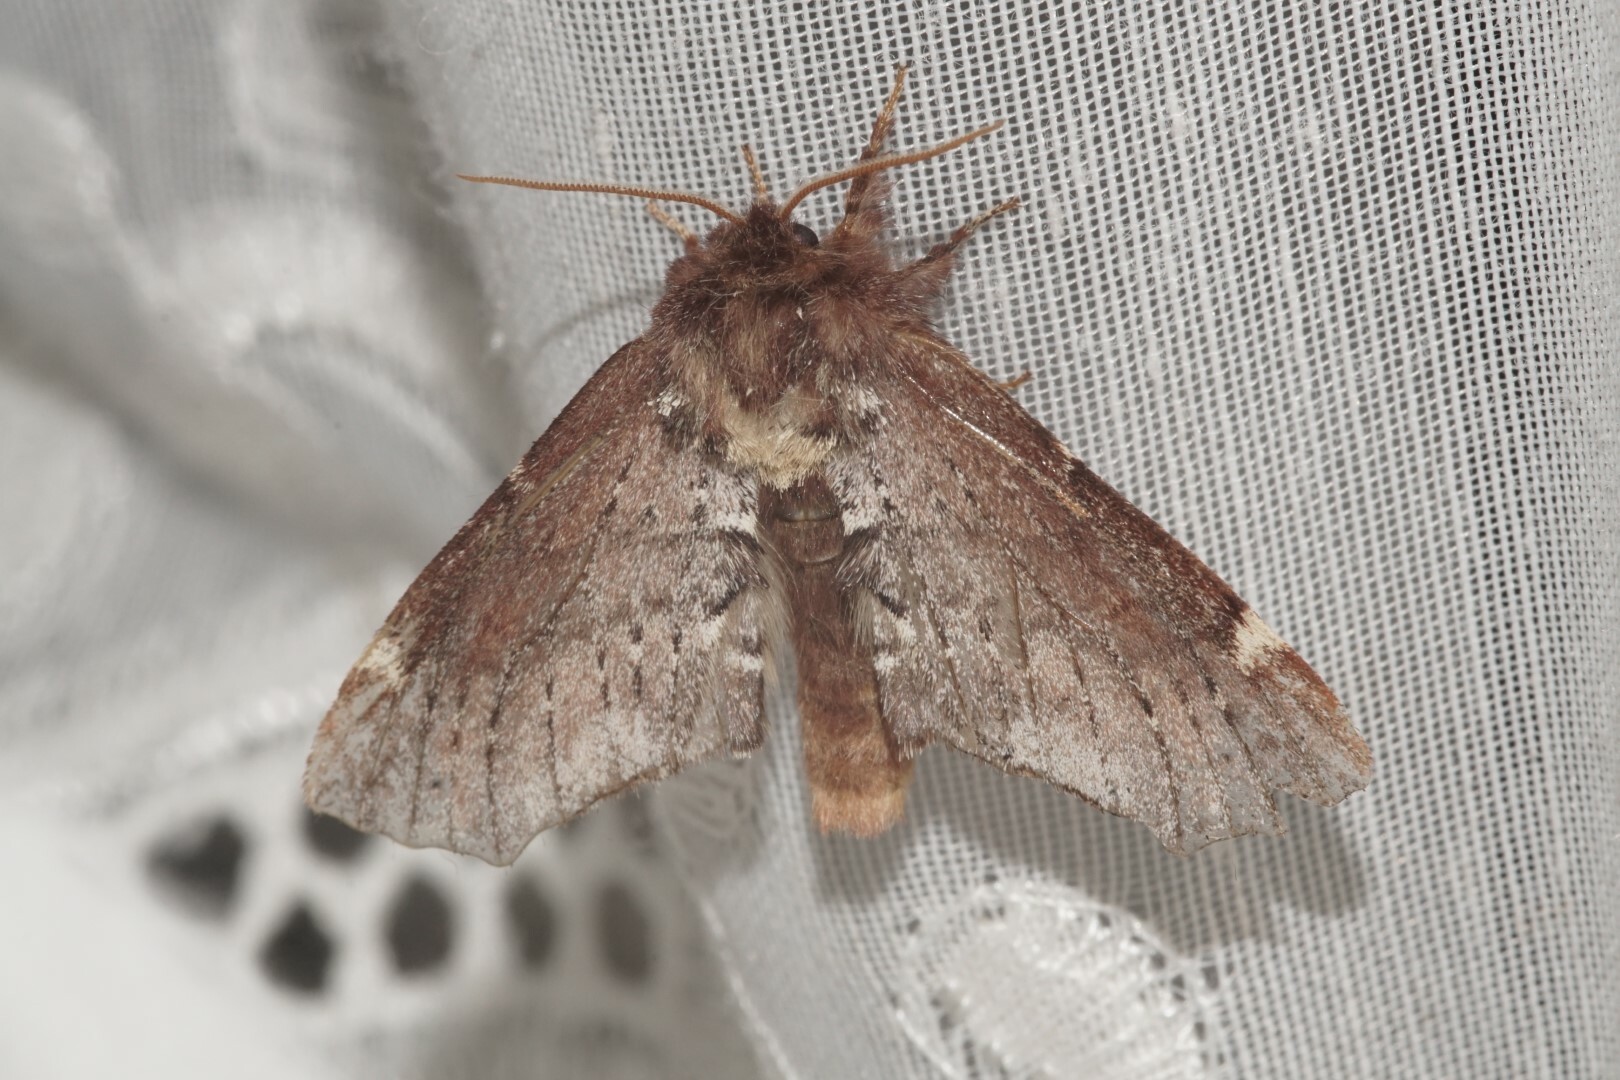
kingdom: Animalia
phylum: Arthropoda
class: Insecta
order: Lepidoptera
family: Notodontidae
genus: Odontosia
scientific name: Odontosia carmelita
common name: Scarce prominent
